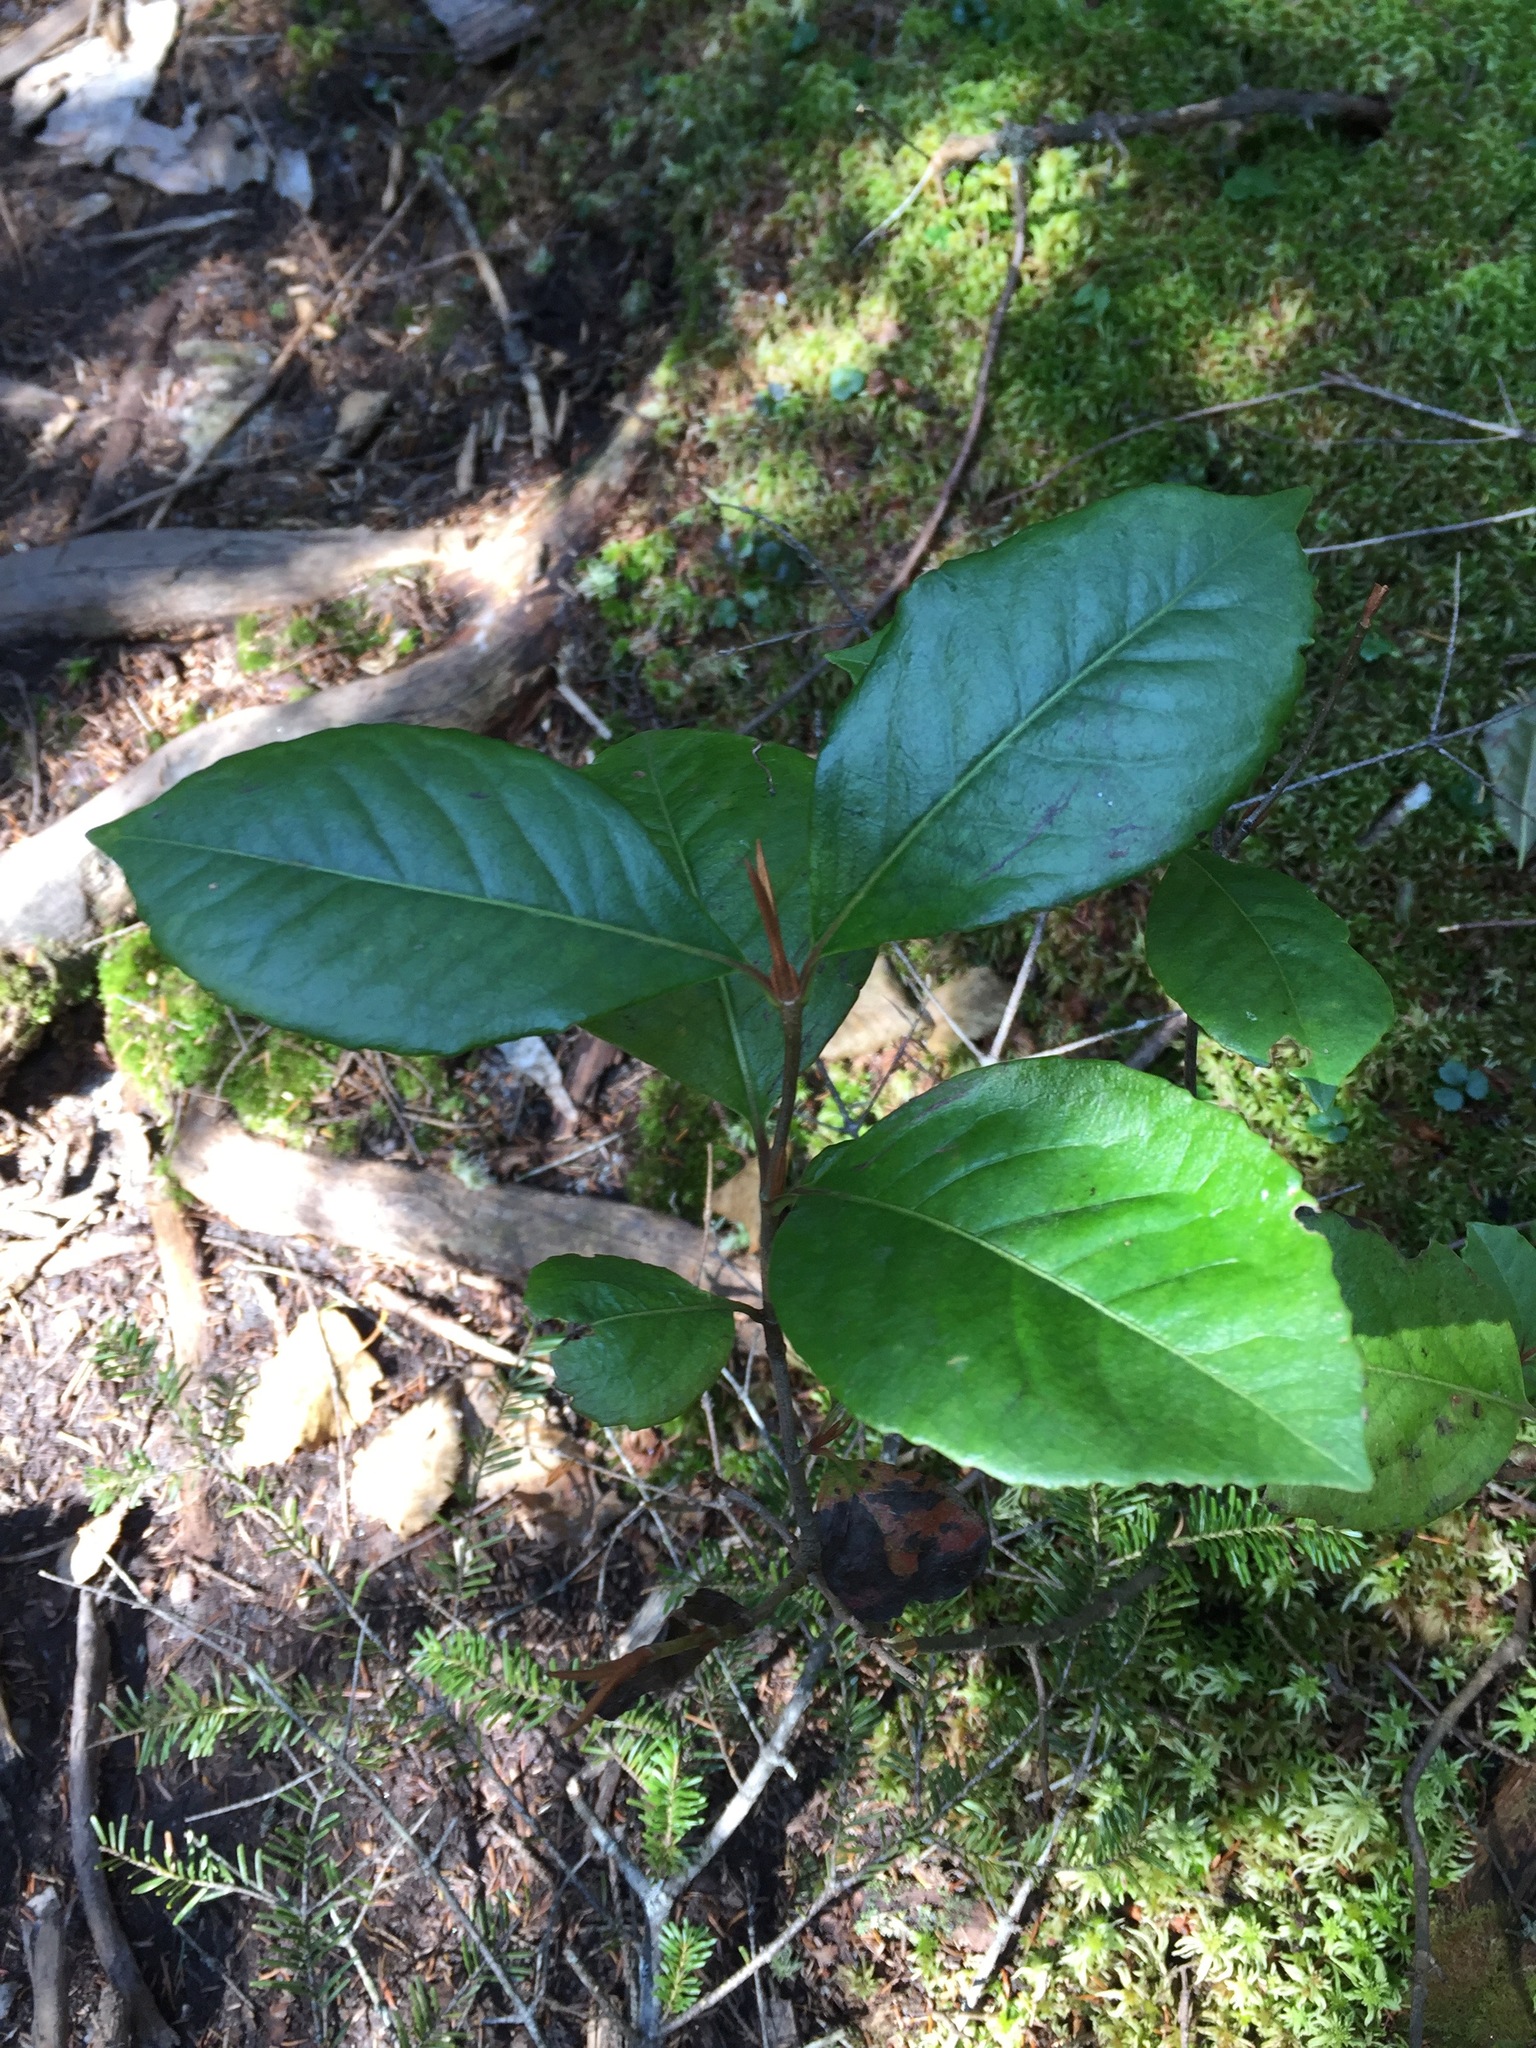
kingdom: Plantae
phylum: Tracheophyta
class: Magnoliopsida
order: Dipsacales
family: Viburnaceae
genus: Viburnum
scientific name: Viburnum cassinoides
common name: Swamp haw
